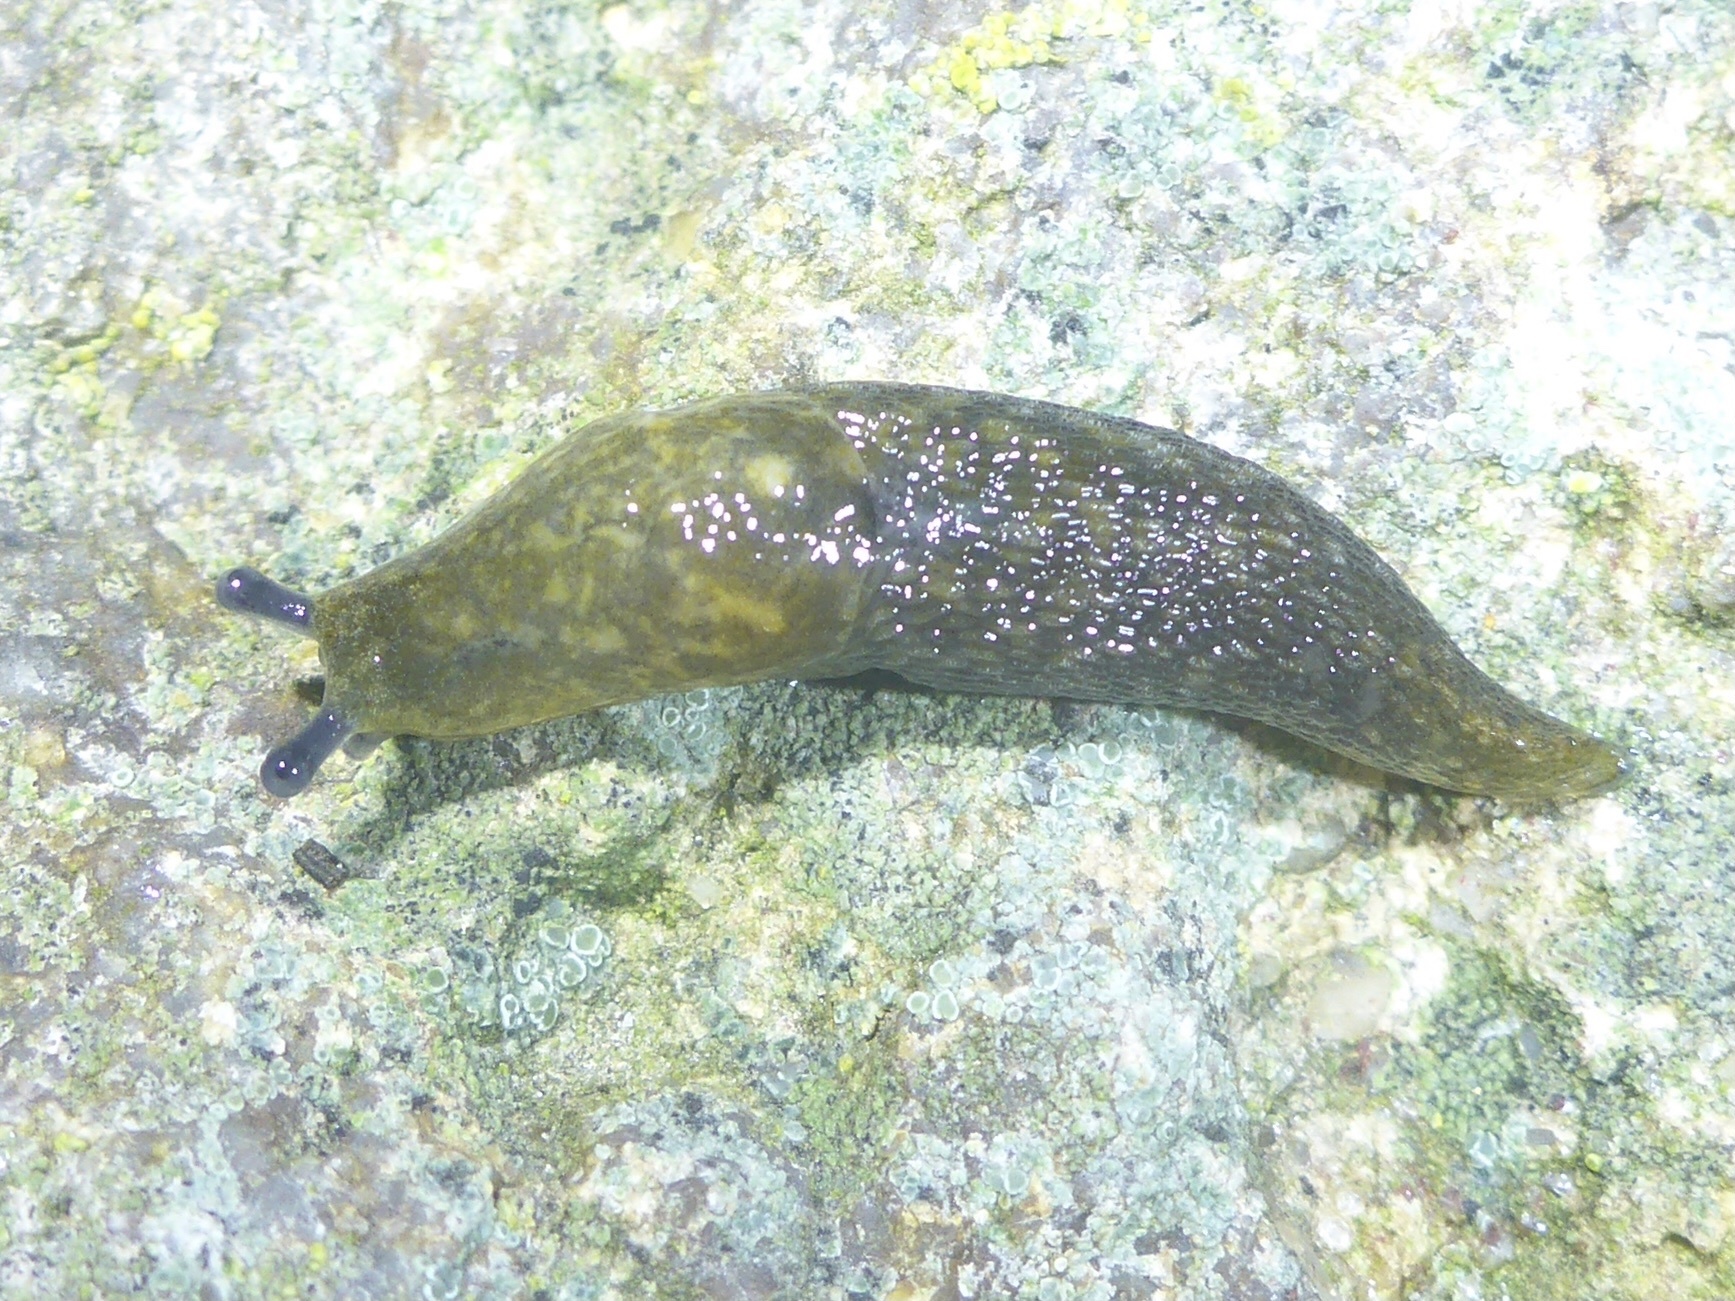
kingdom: Animalia
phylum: Mollusca
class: Gastropoda
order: Stylommatophora
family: Limacidae
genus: Limacus
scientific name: Limacus flavus
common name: Yellow gardenslug
